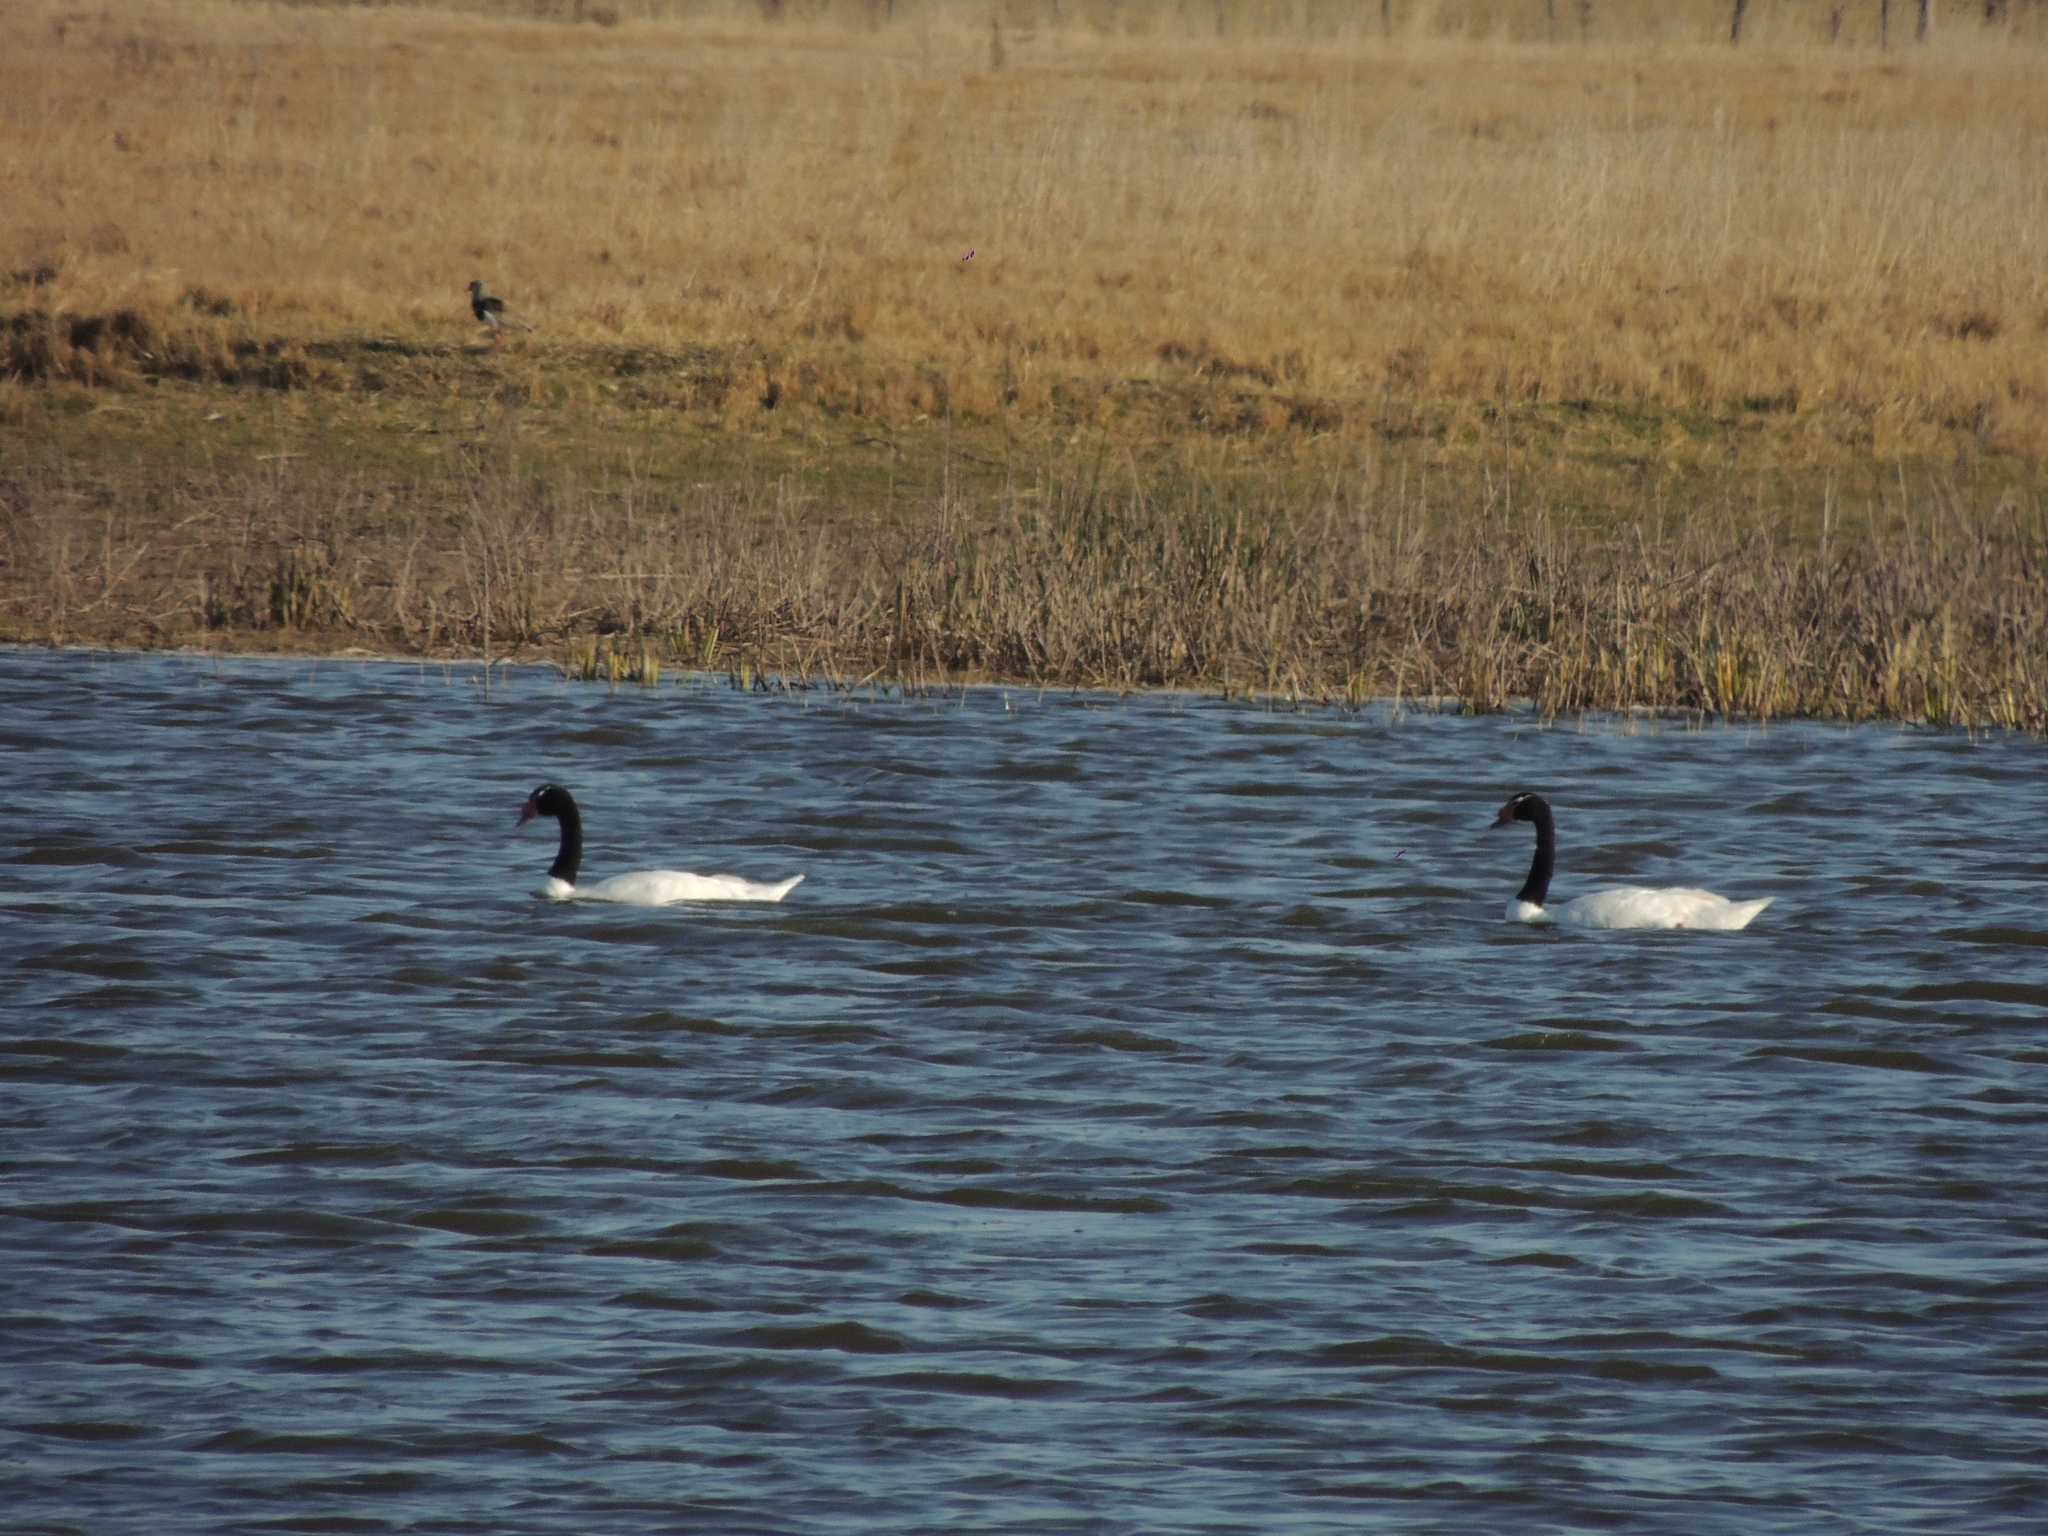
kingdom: Animalia
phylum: Chordata
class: Aves
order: Anseriformes
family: Anatidae
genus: Cygnus
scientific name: Cygnus melancoryphus
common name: Black-necked swan
